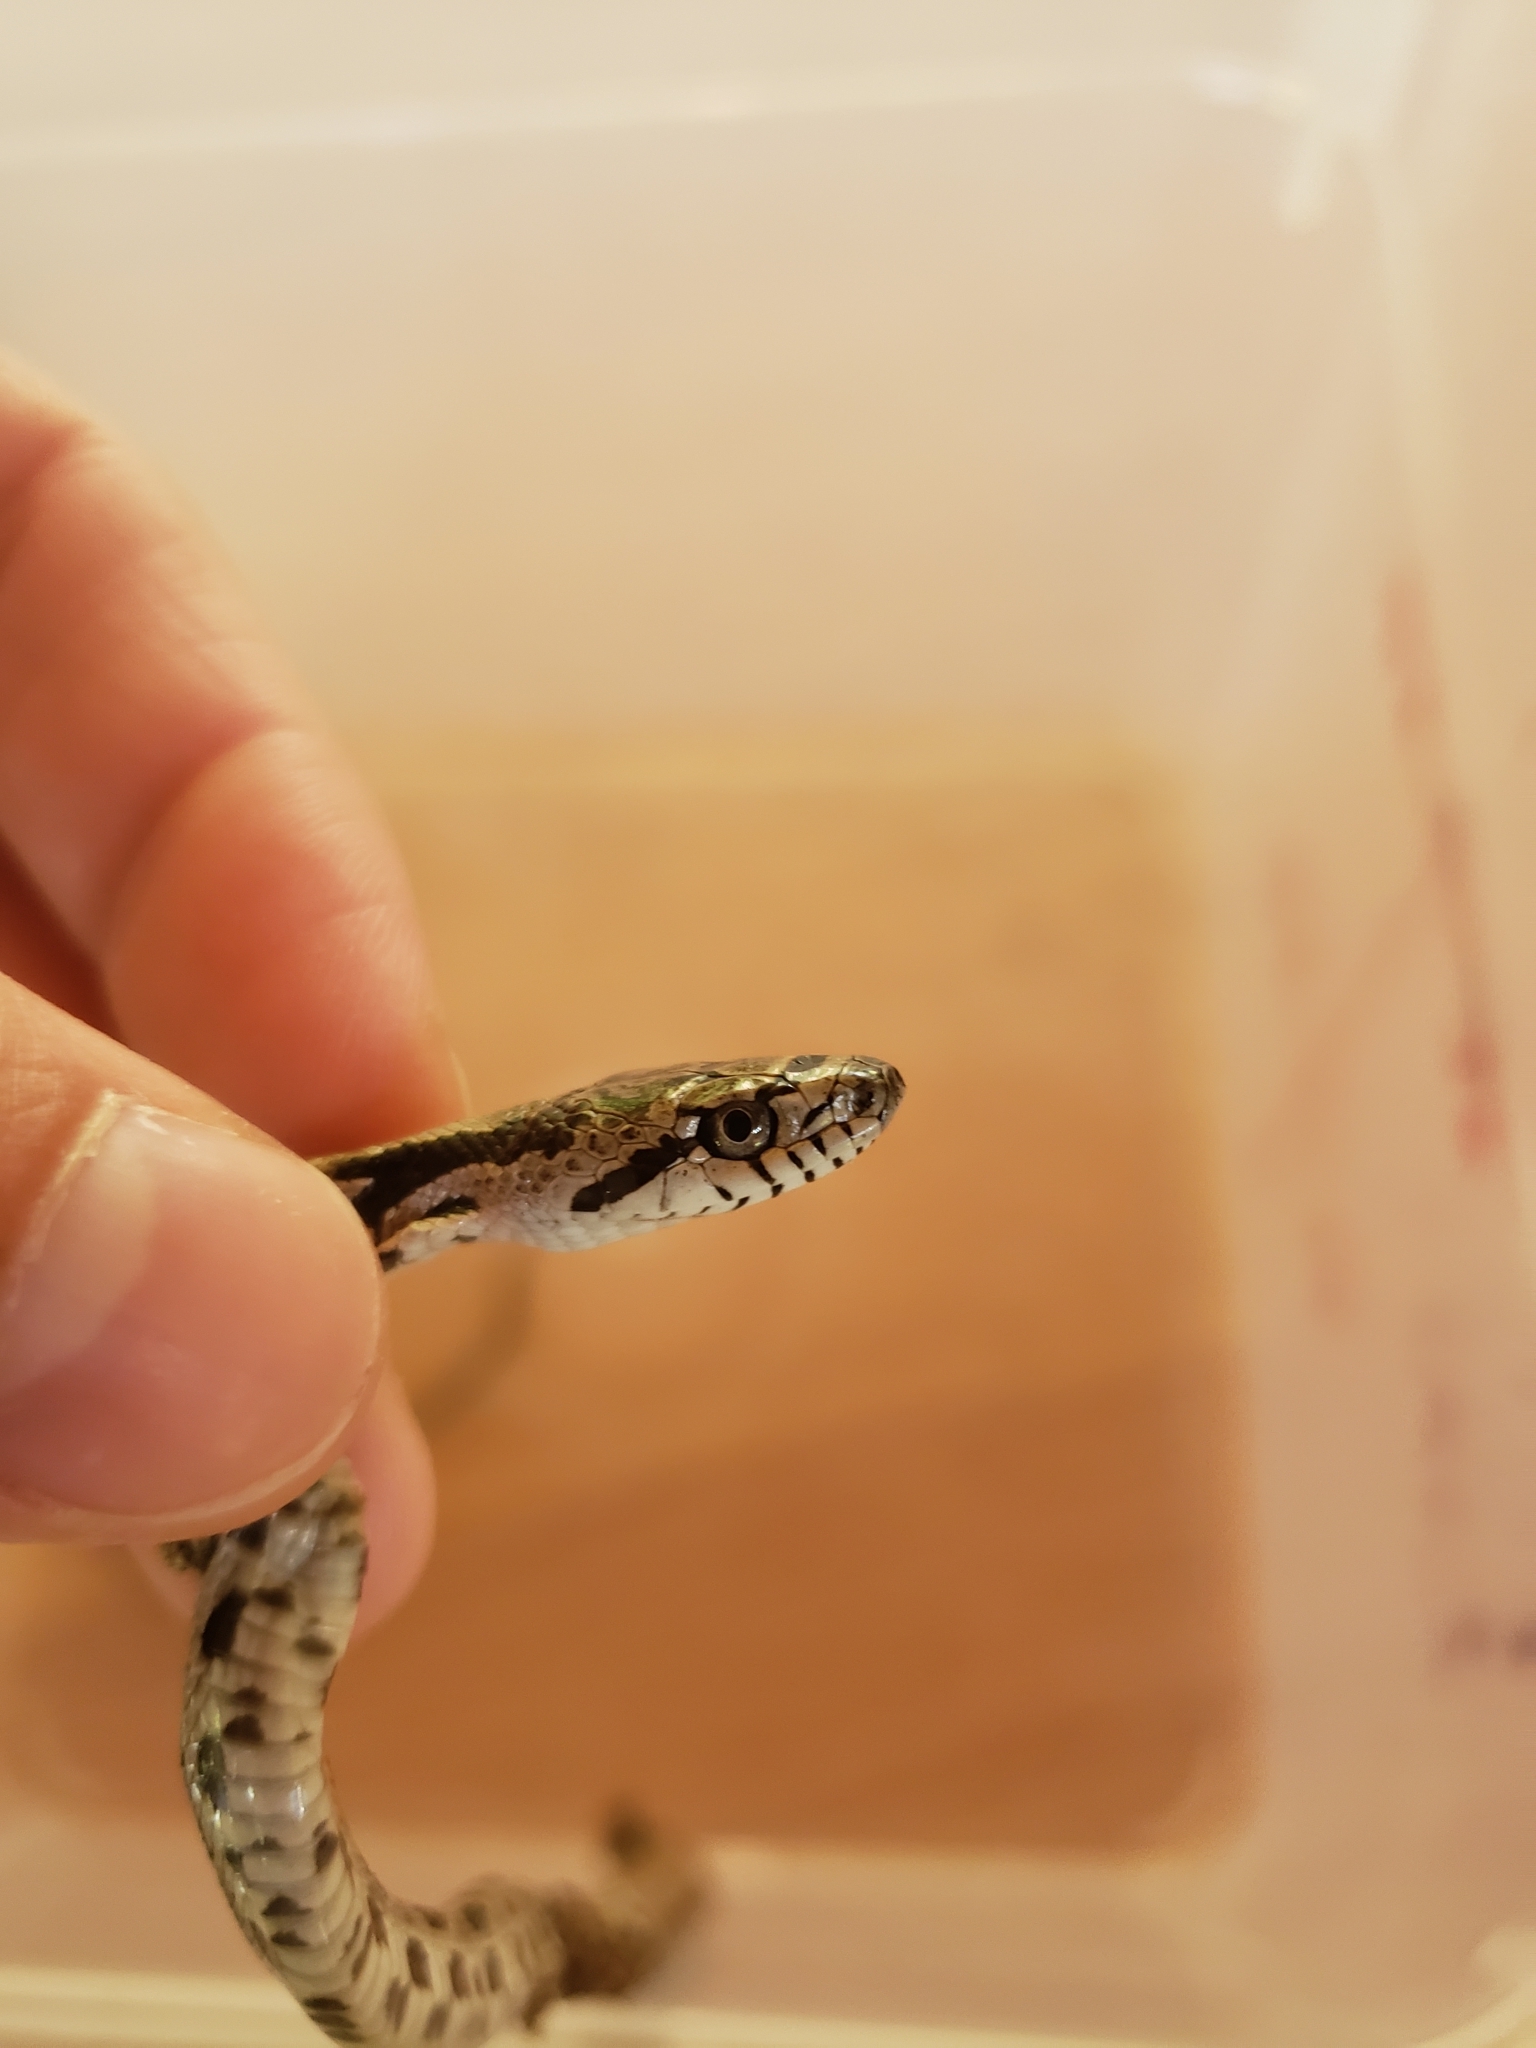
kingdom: Animalia
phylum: Chordata
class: Squamata
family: Colubridae
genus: Pantherophis
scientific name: Pantherophis spiloides
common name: Gray rat snake
